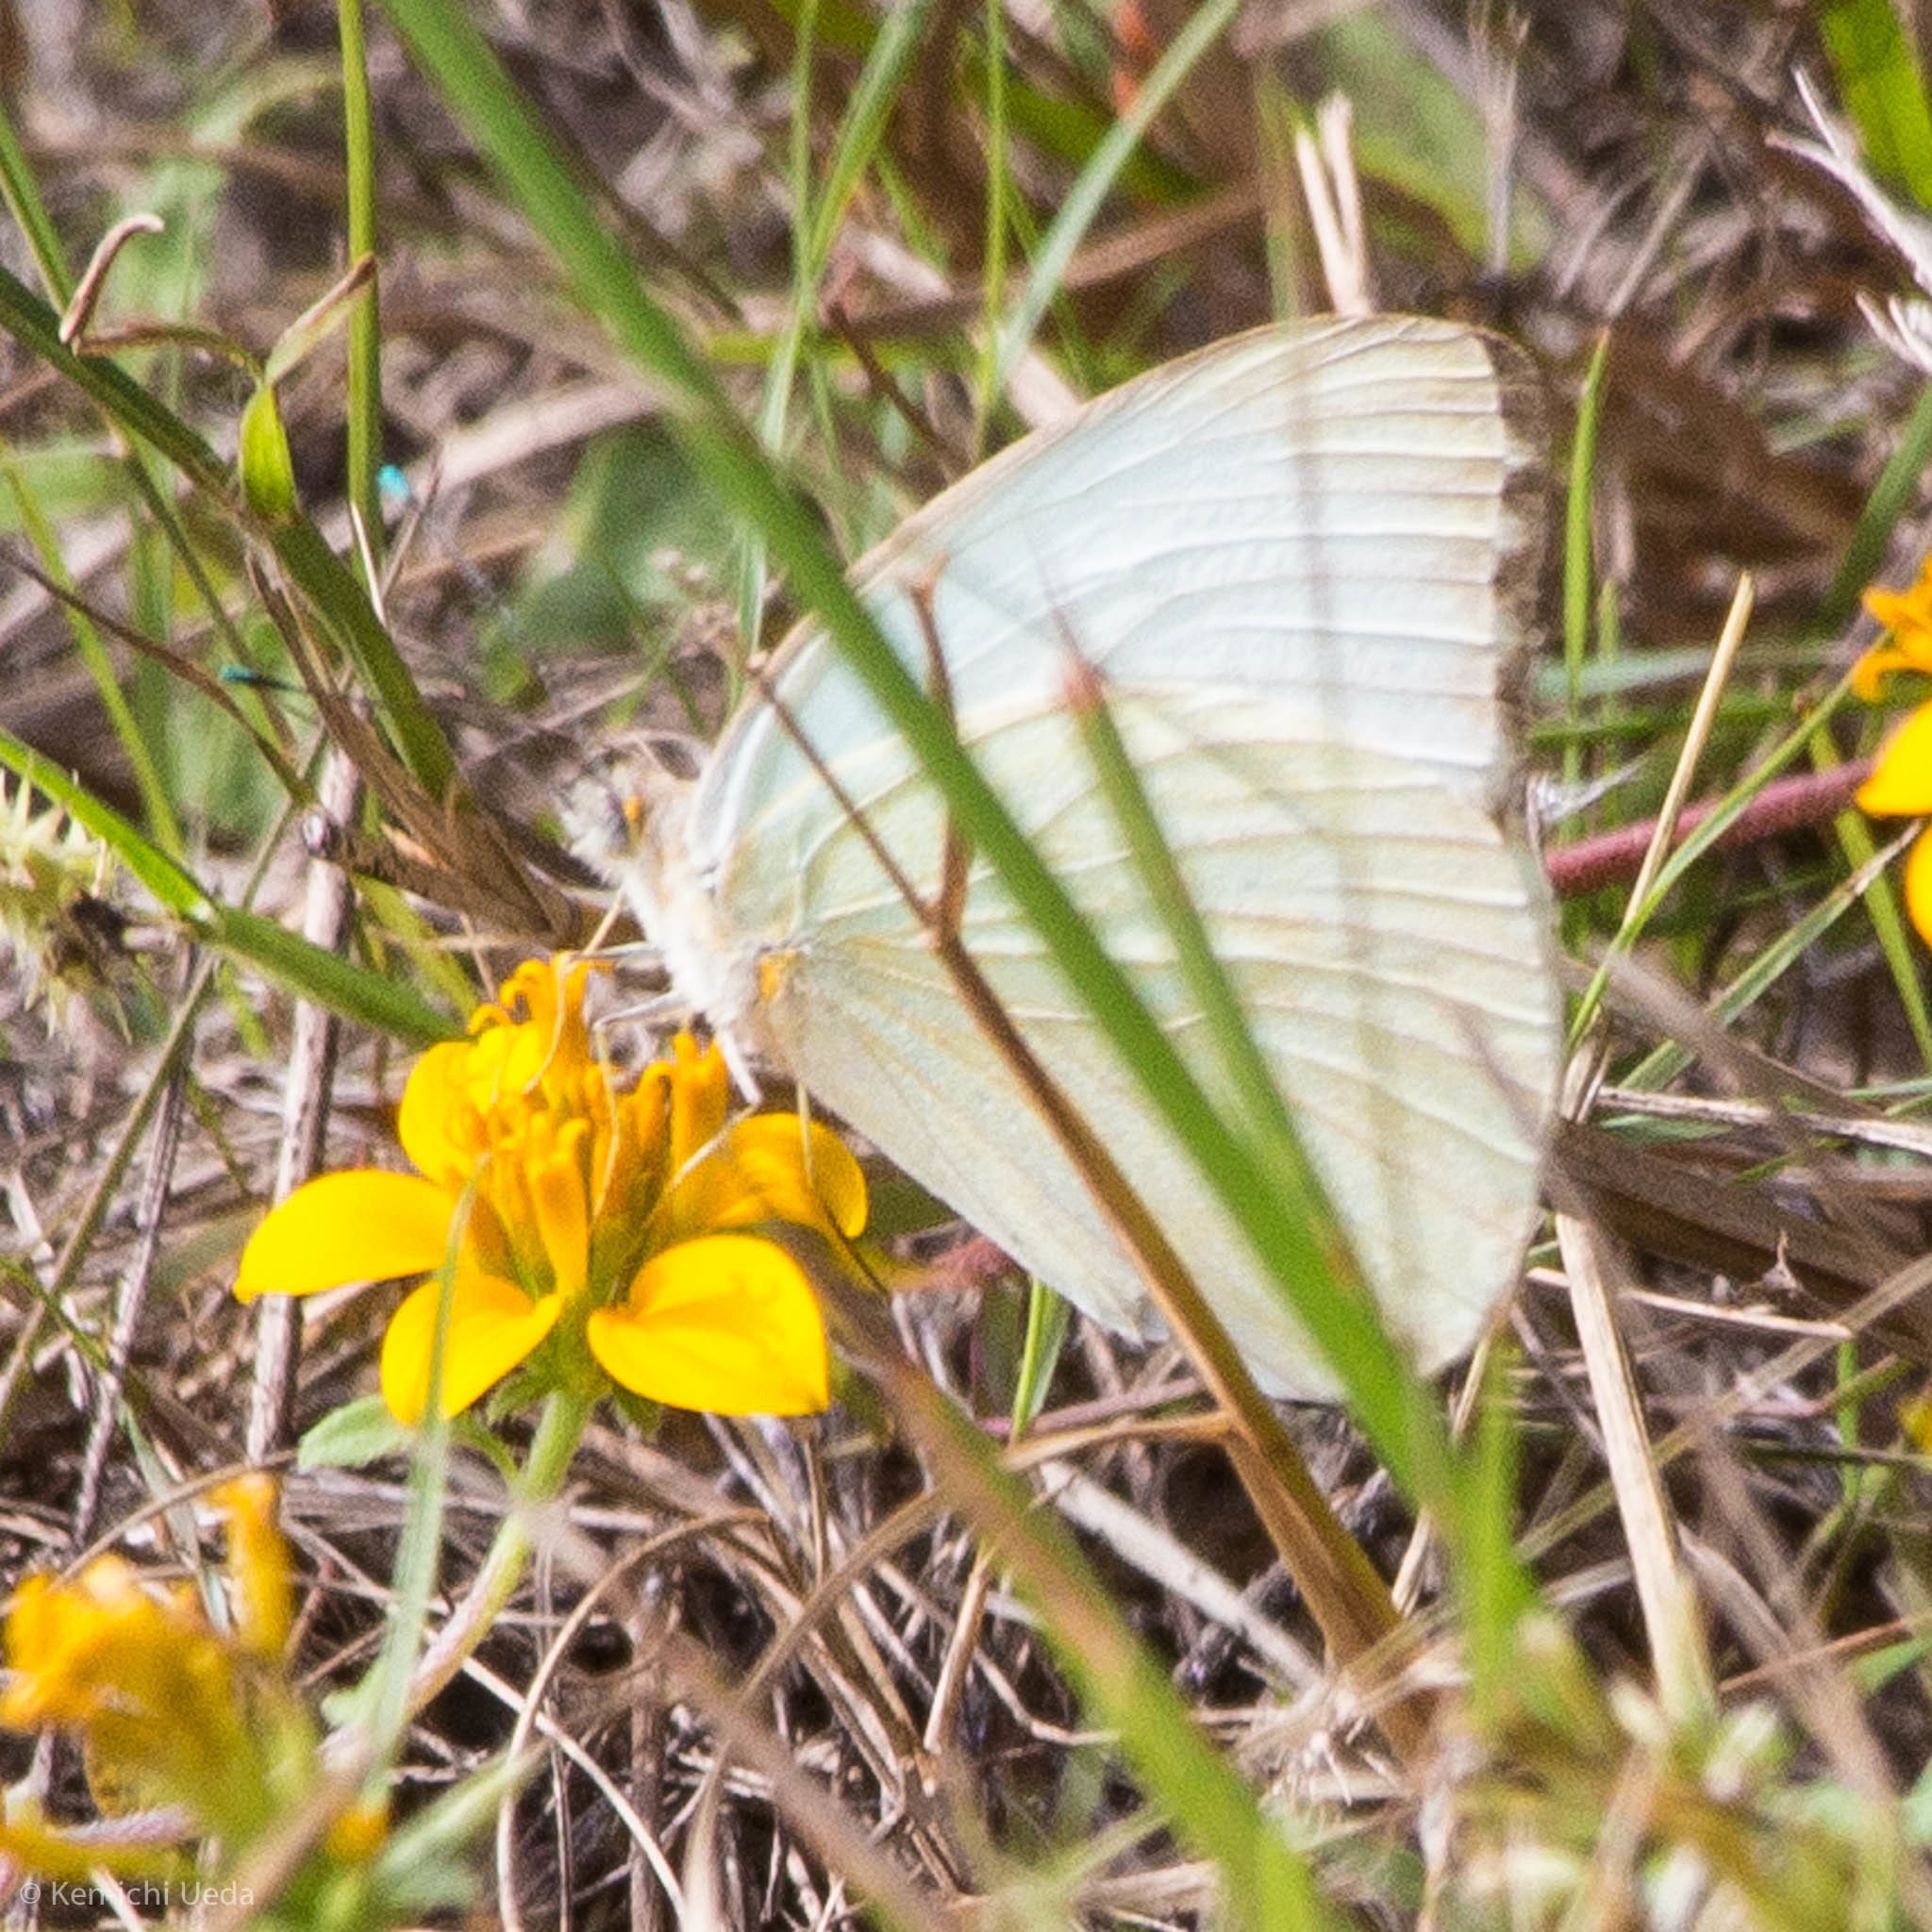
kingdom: Animalia
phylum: Arthropoda
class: Insecta
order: Lepidoptera
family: Pieridae
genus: Ascia
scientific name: Ascia monuste
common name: Great southern white
